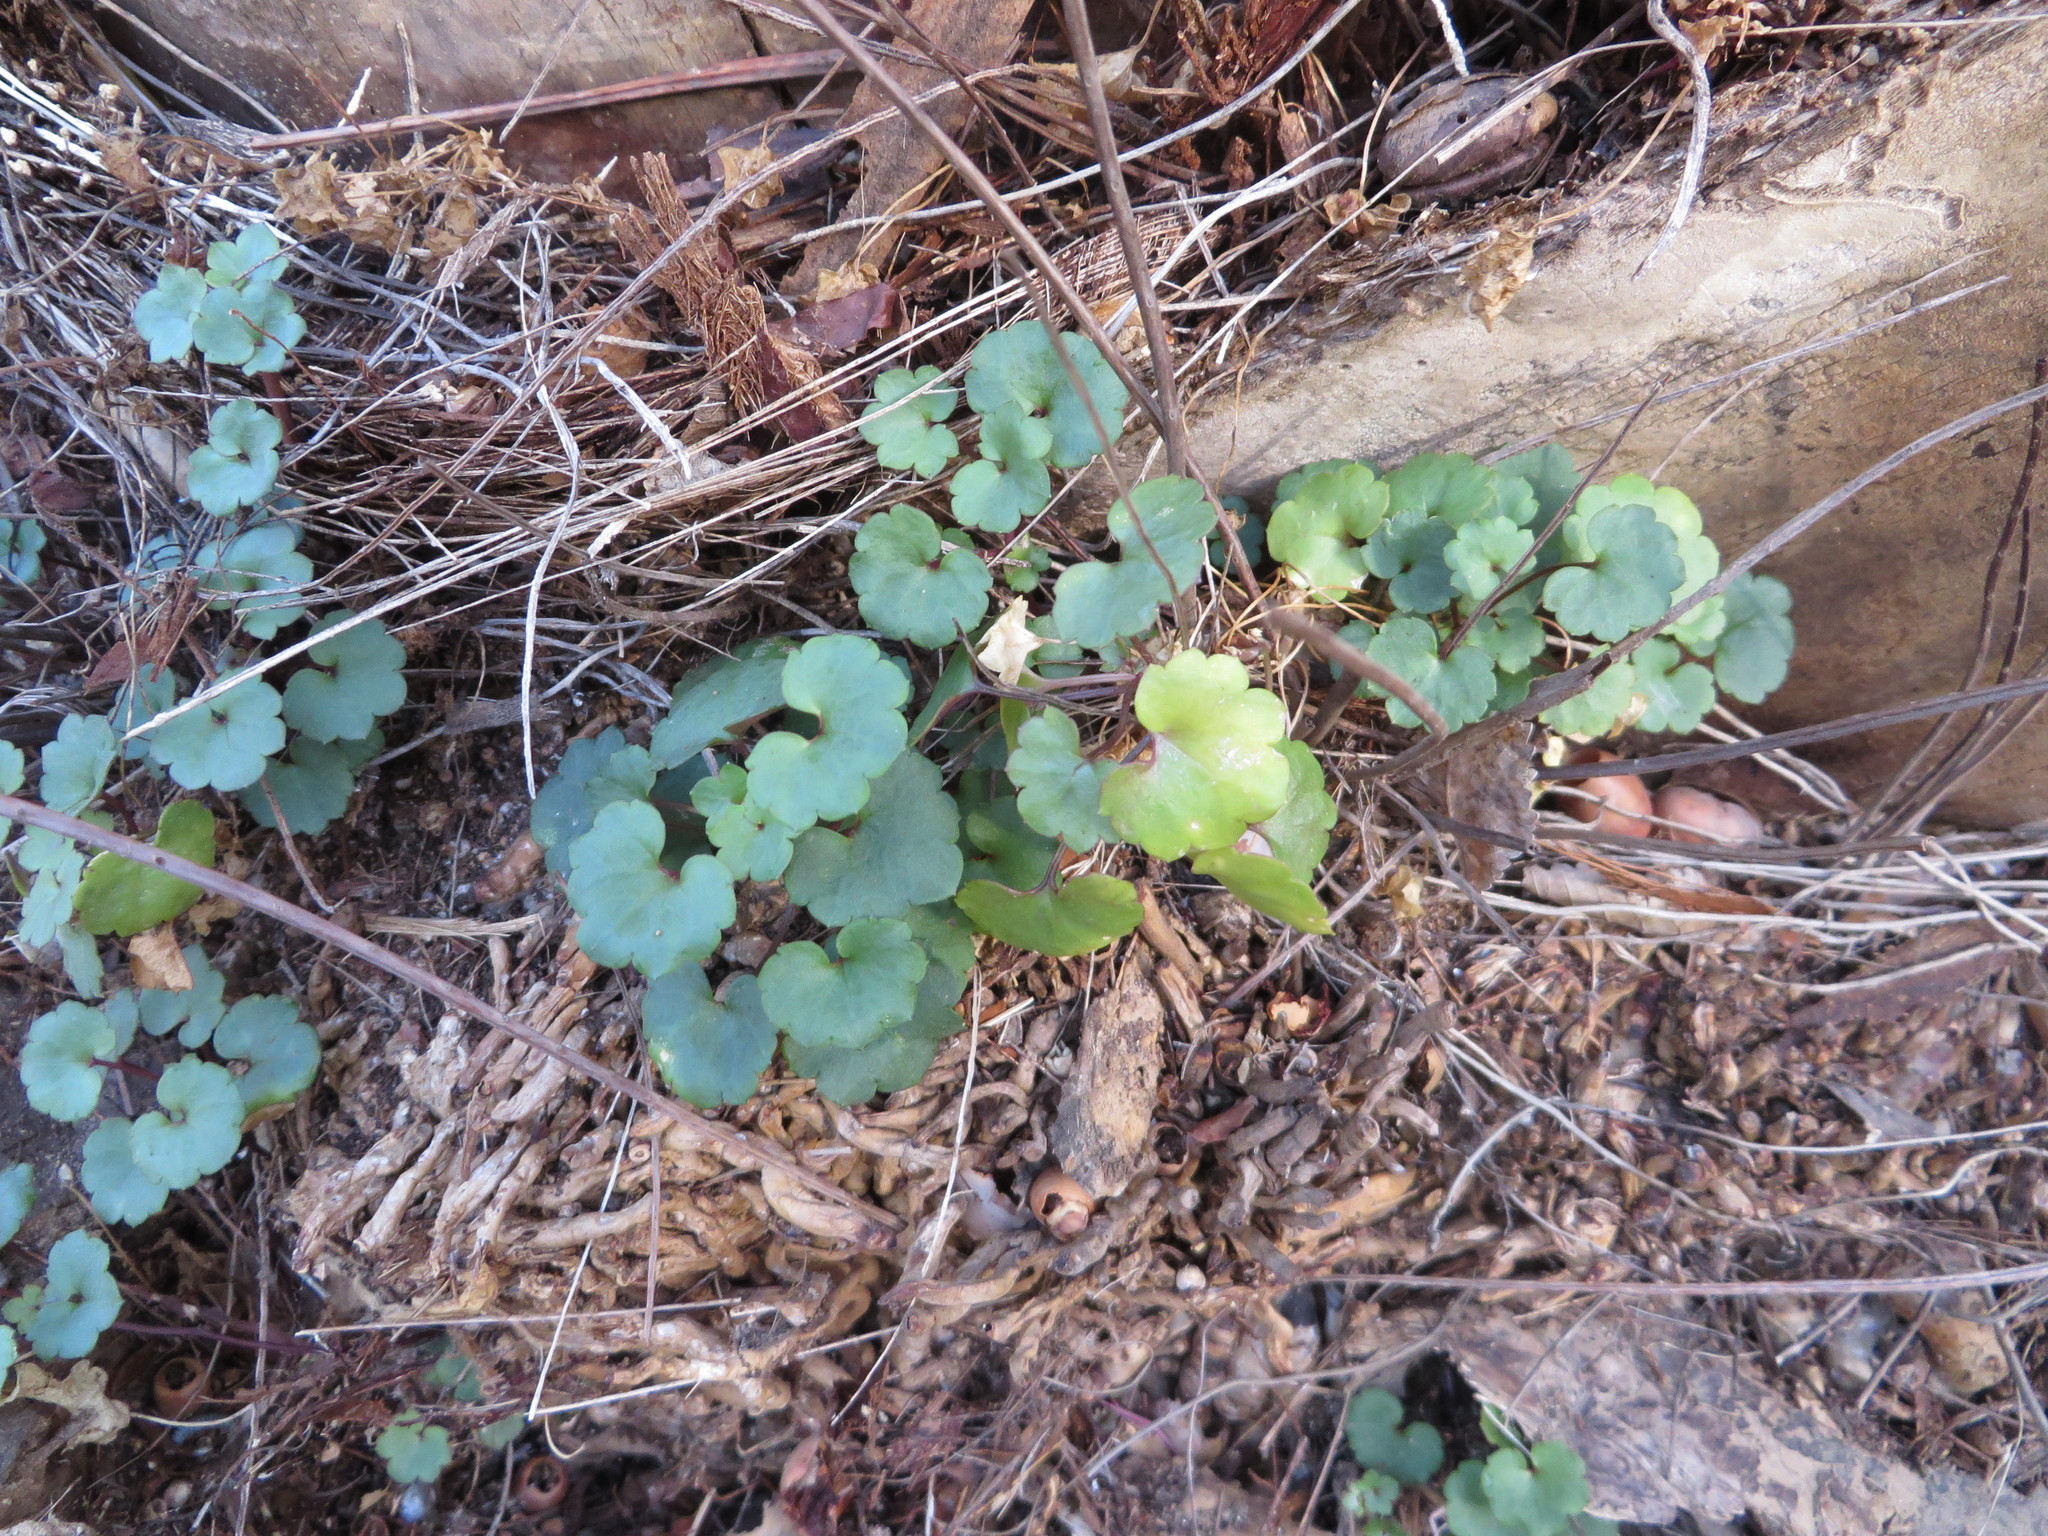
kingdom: Plantae
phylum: Tracheophyta
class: Magnoliopsida
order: Lamiales
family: Plantaginaceae
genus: Cymbalaria
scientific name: Cymbalaria muralis
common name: Ivy-leaved toadflax
